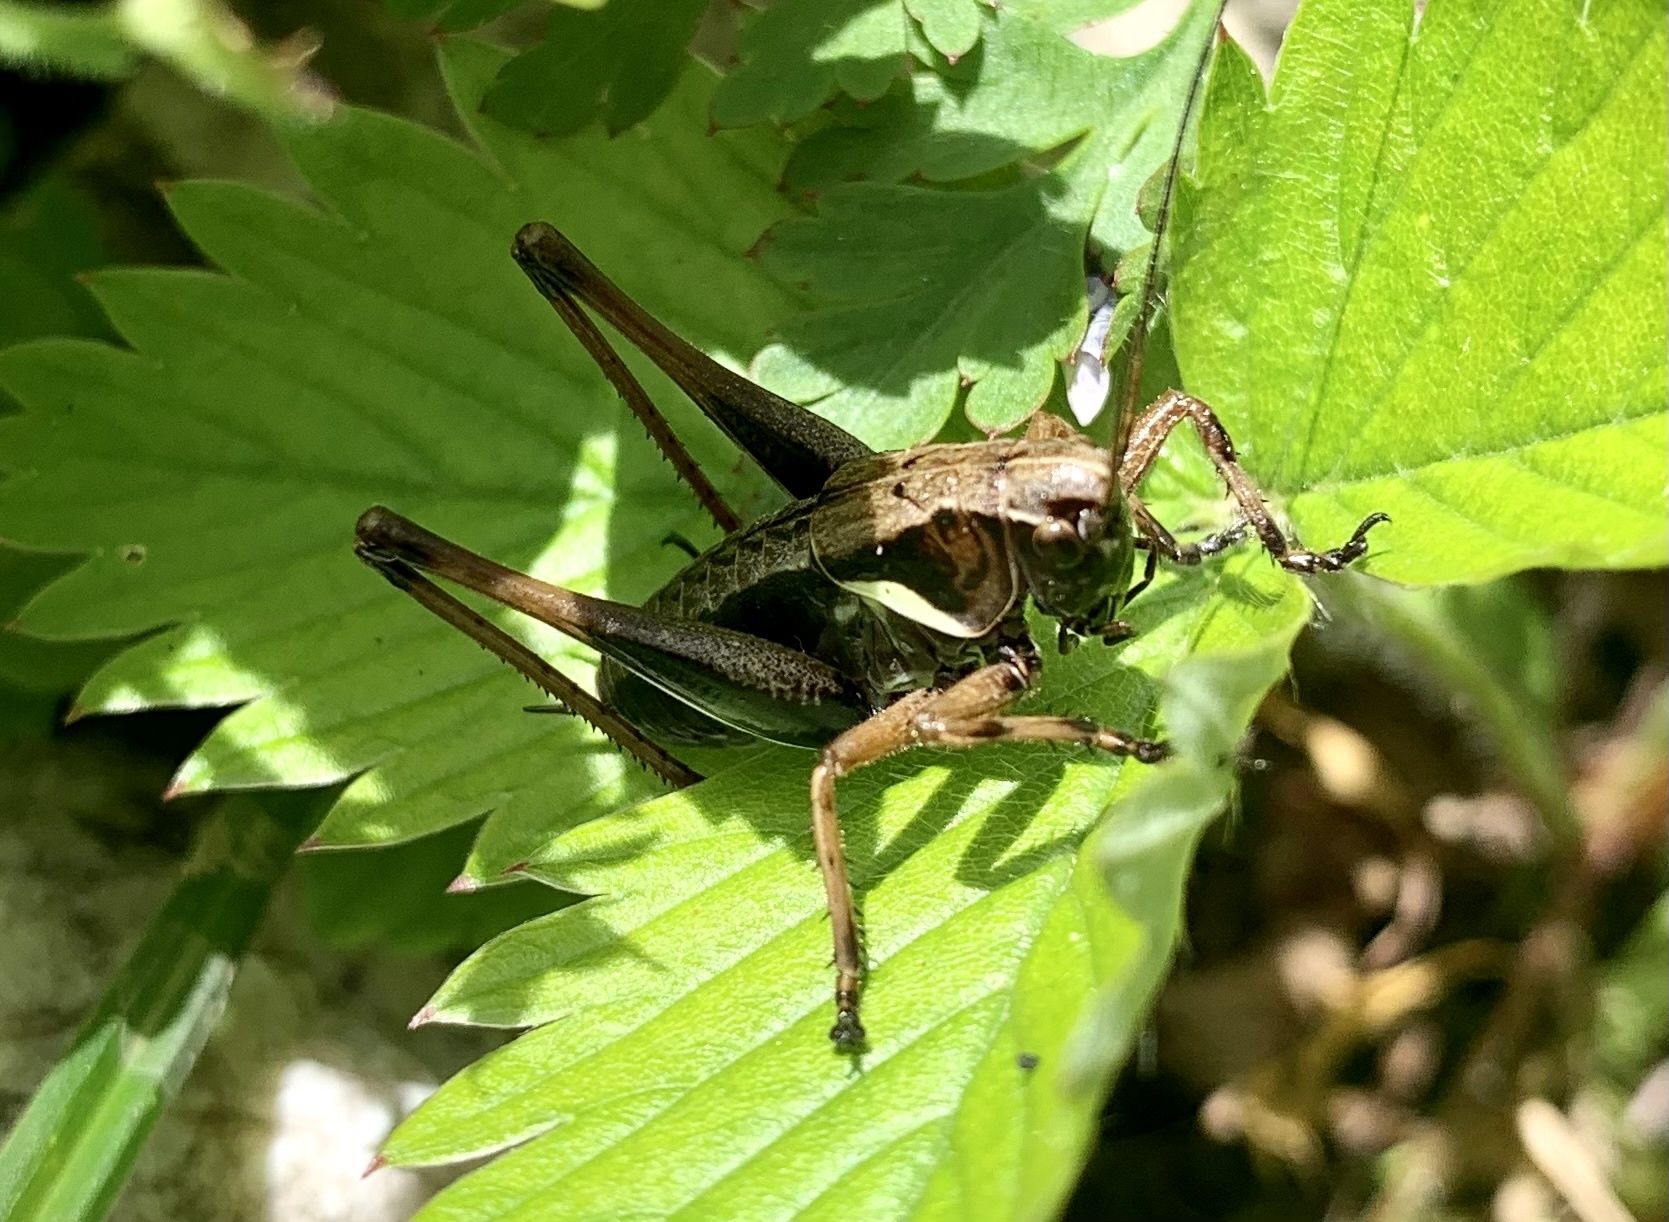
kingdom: Animalia
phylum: Arthropoda
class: Insecta
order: Orthoptera
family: Tettigoniidae
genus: Pholidoptera
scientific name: Pholidoptera aptera
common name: Alpine dark bush-cricket
